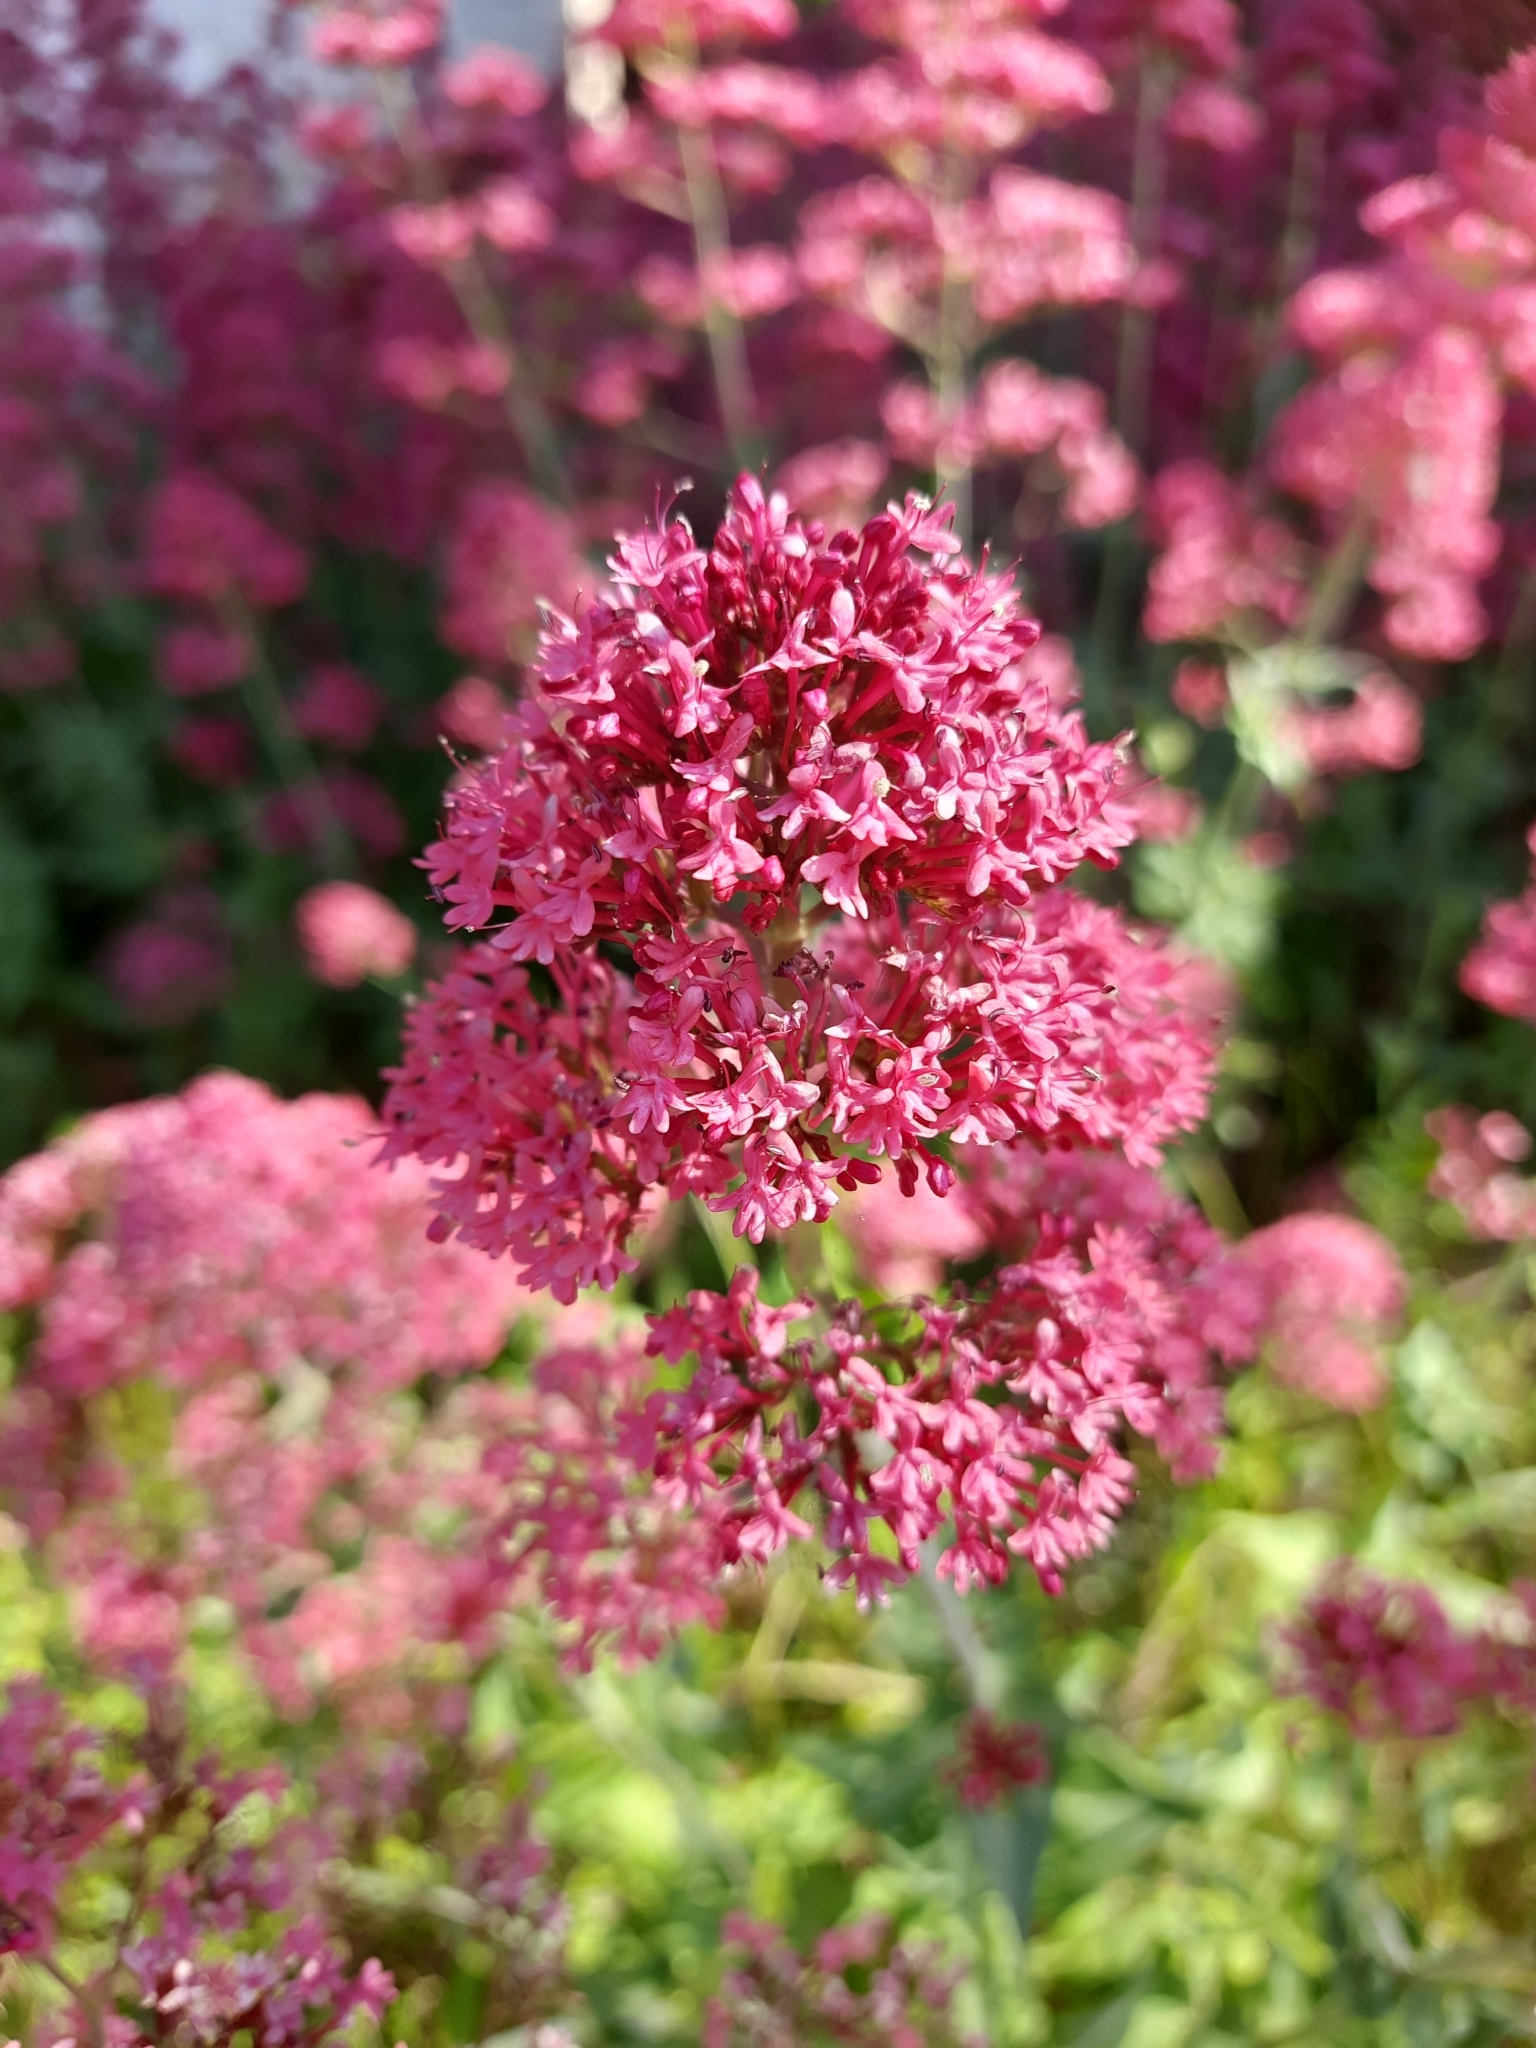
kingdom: Plantae
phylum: Tracheophyta
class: Magnoliopsida
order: Dipsacales
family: Caprifoliaceae
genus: Centranthus
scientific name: Centranthus ruber
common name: Red valerian
